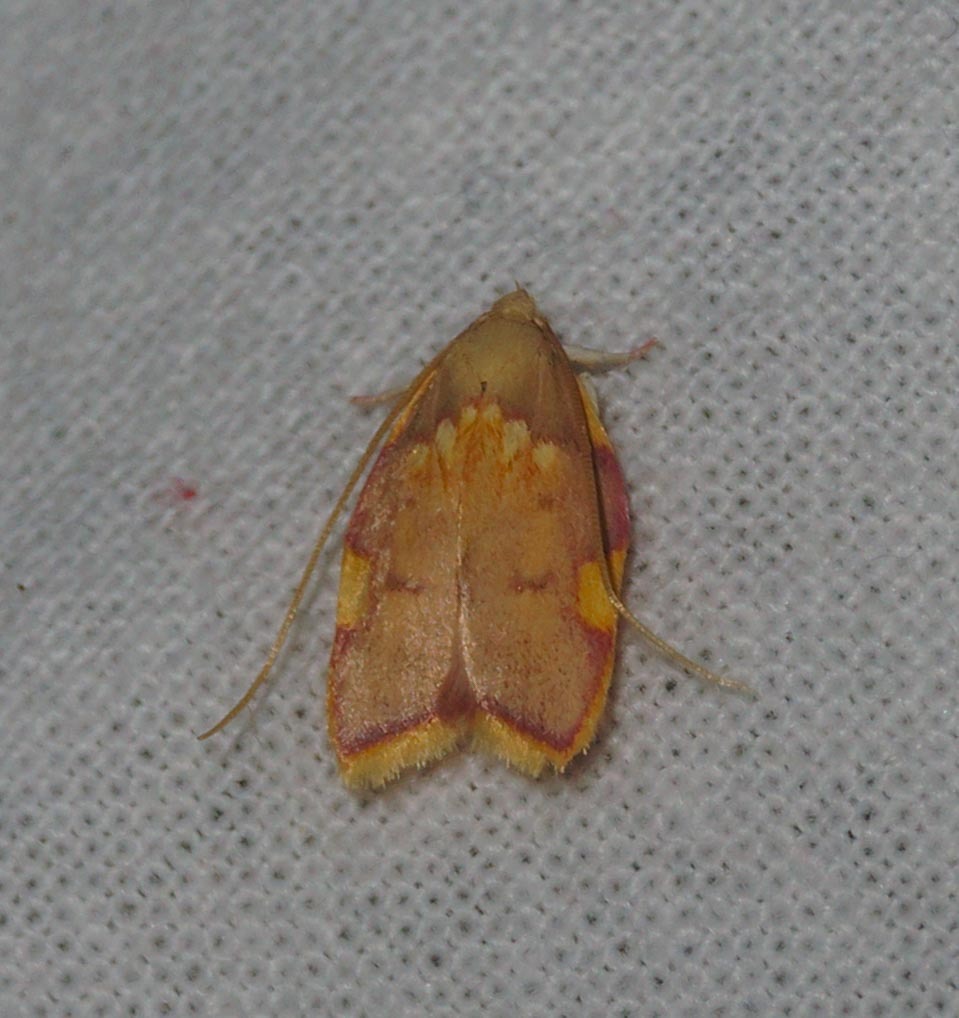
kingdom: Animalia
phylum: Arthropoda
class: Insecta
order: Lepidoptera
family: Peleopodidae
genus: Carcina
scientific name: Carcina quercana
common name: Moth
